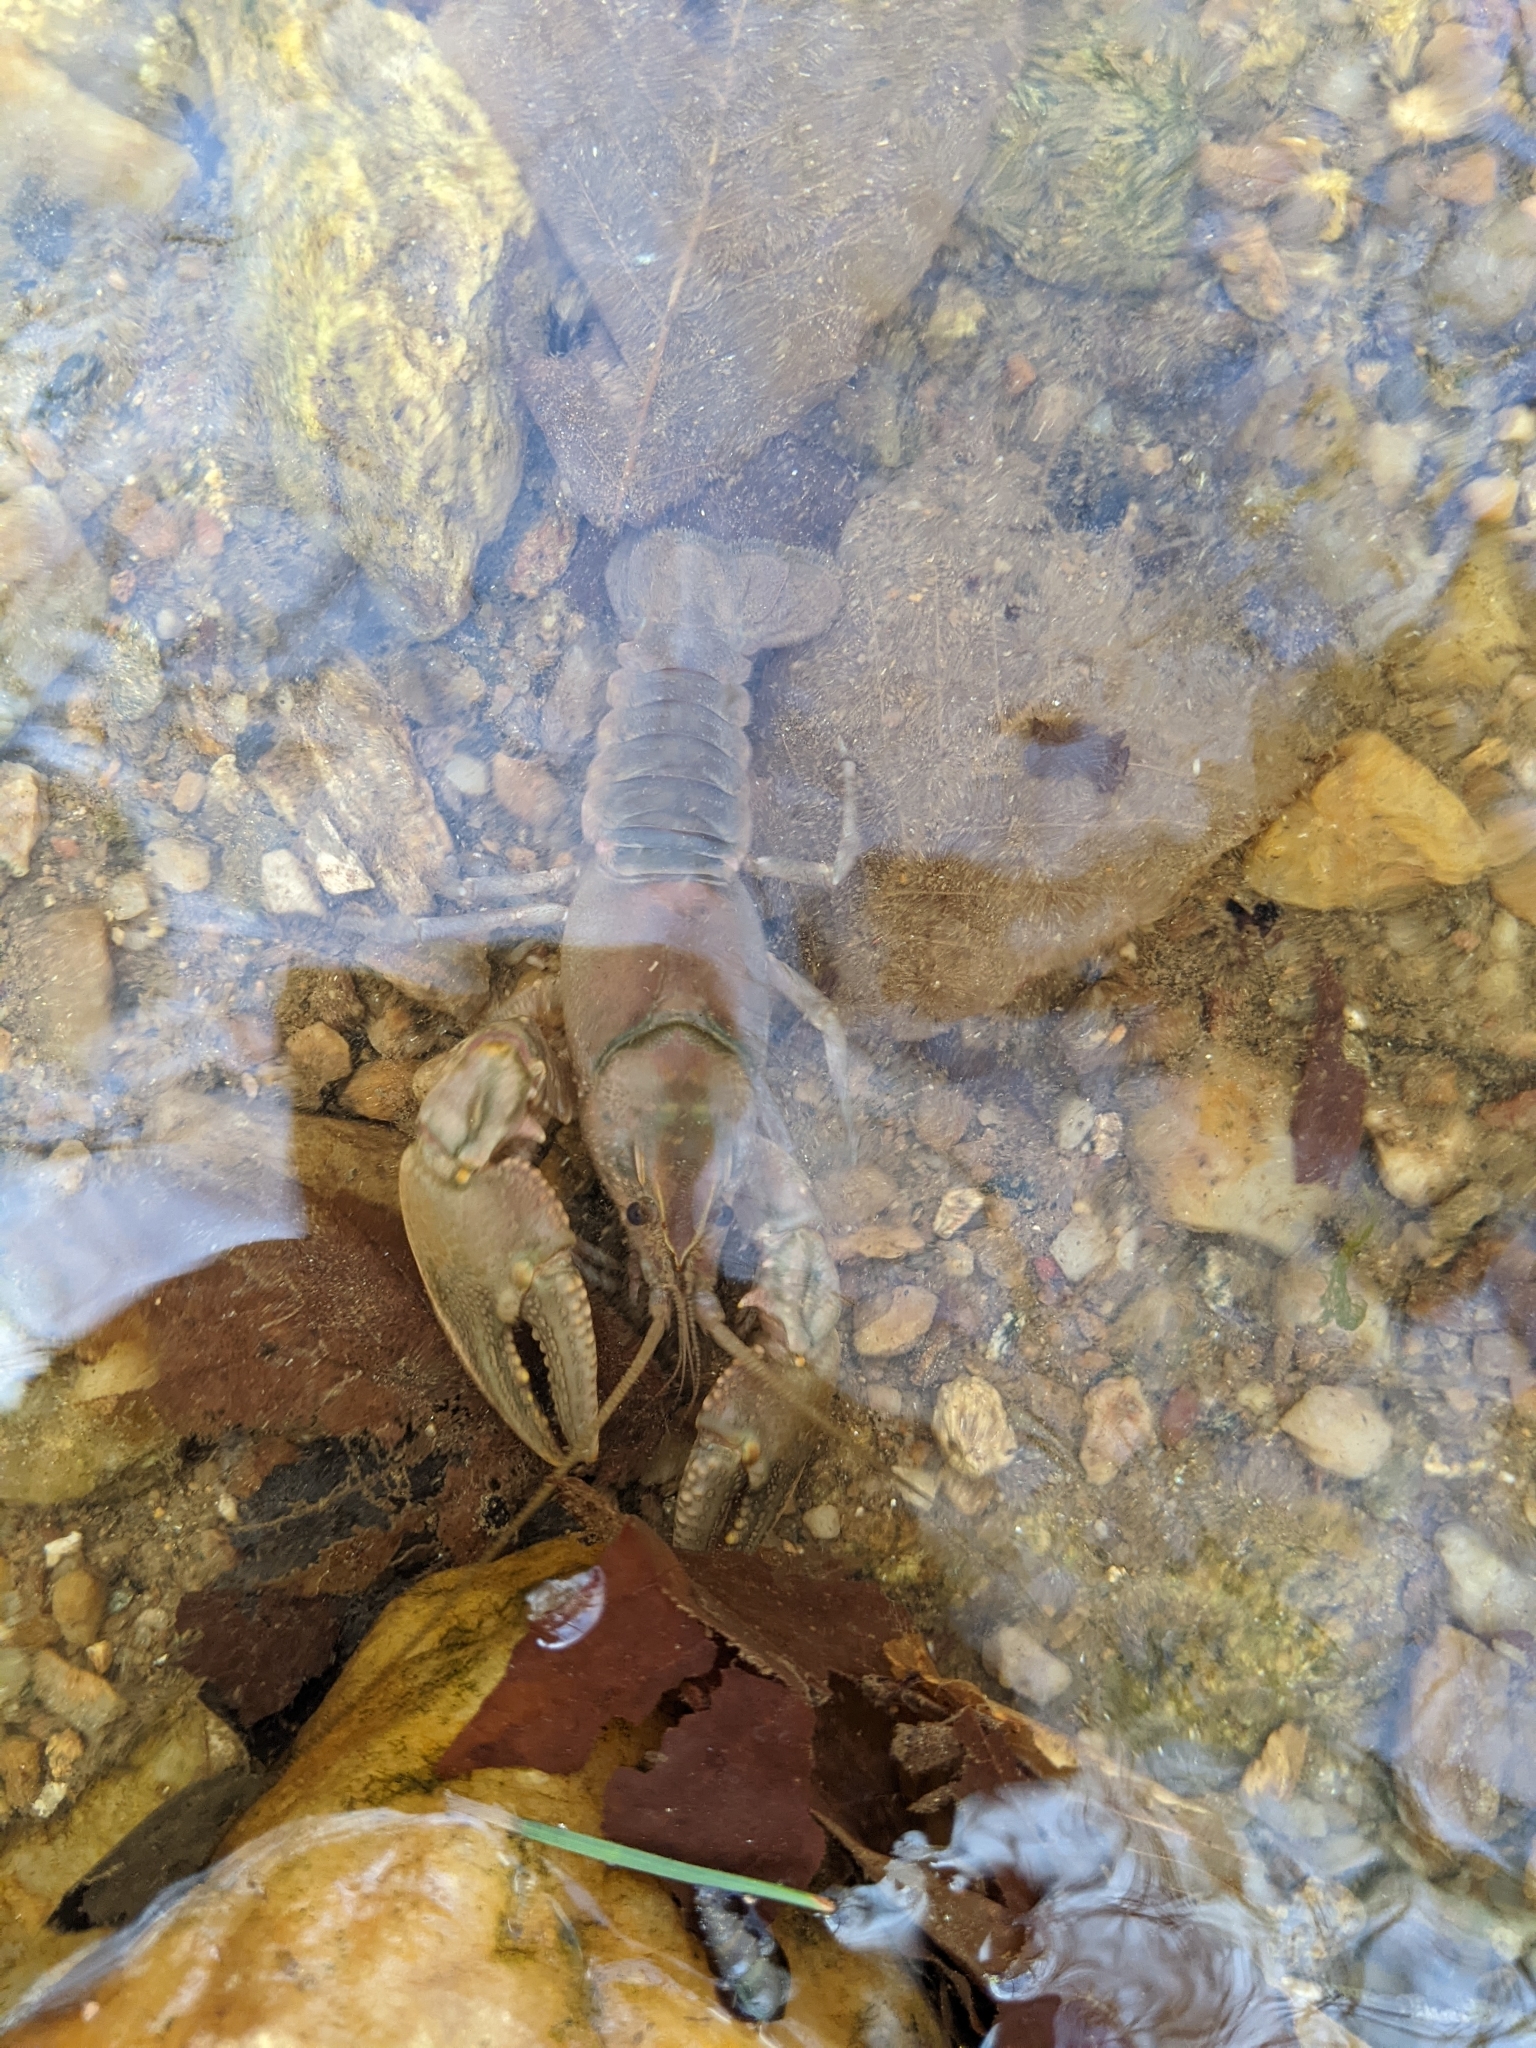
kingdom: Animalia
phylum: Arthropoda
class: Malacostraca
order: Decapoda
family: Cambaridae
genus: Cambarus
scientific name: Cambarus acuminatus
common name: Acuminate crayfish
